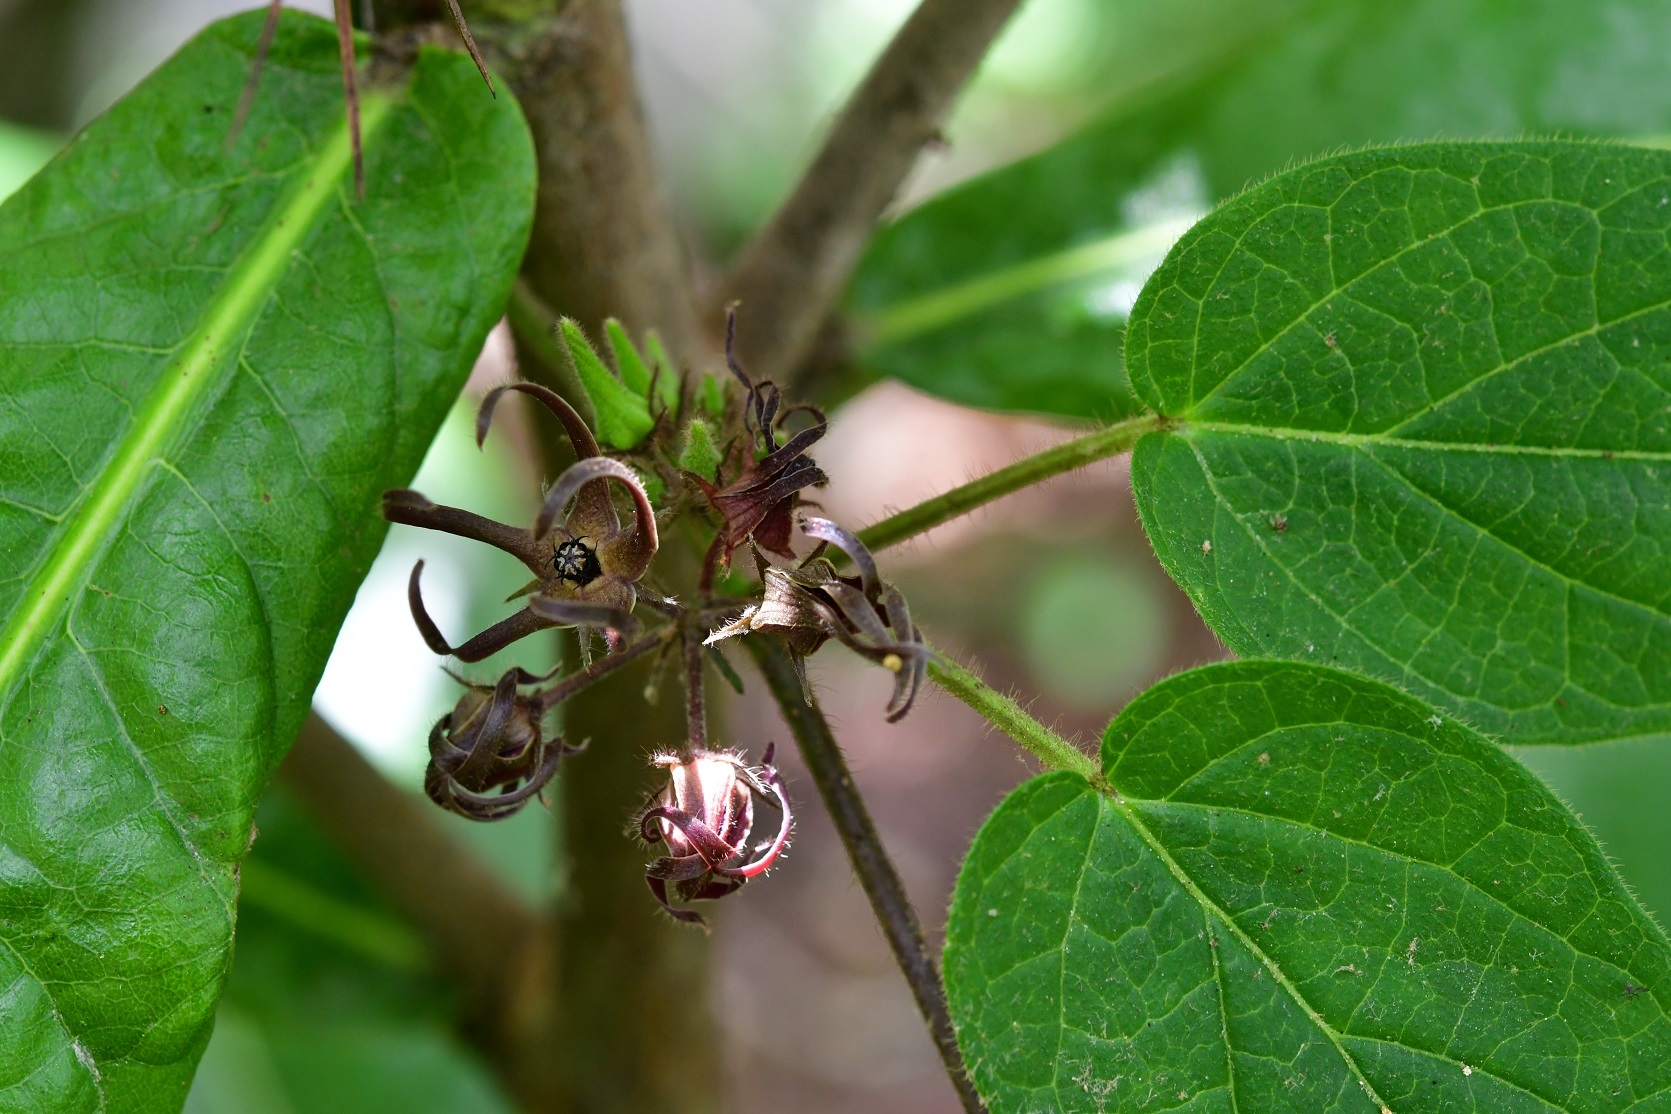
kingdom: Plantae
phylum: Tracheophyta
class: Magnoliopsida
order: Gentianales
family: Apocynaceae
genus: Matelea
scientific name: Matelea medusae
